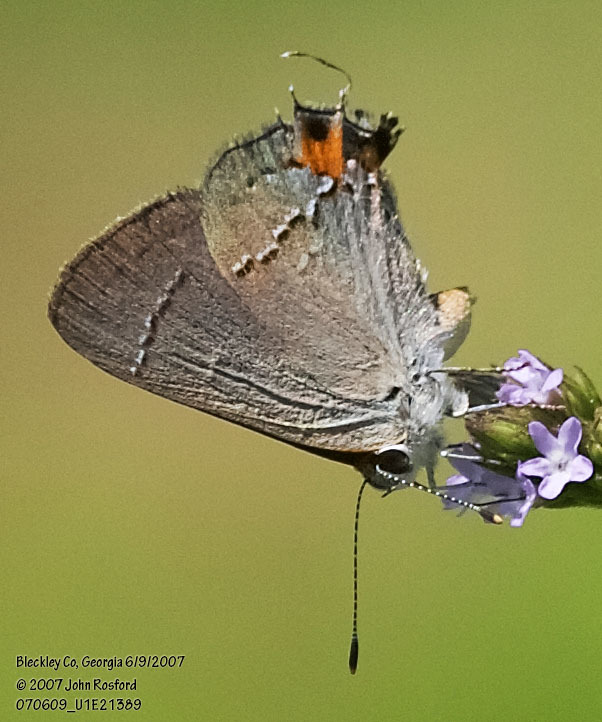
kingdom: Animalia
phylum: Arthropoda
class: Insecta
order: Lepidoptera
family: Lycaenidae
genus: Strymon
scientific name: Strymon melinus
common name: Gray hairstreak
